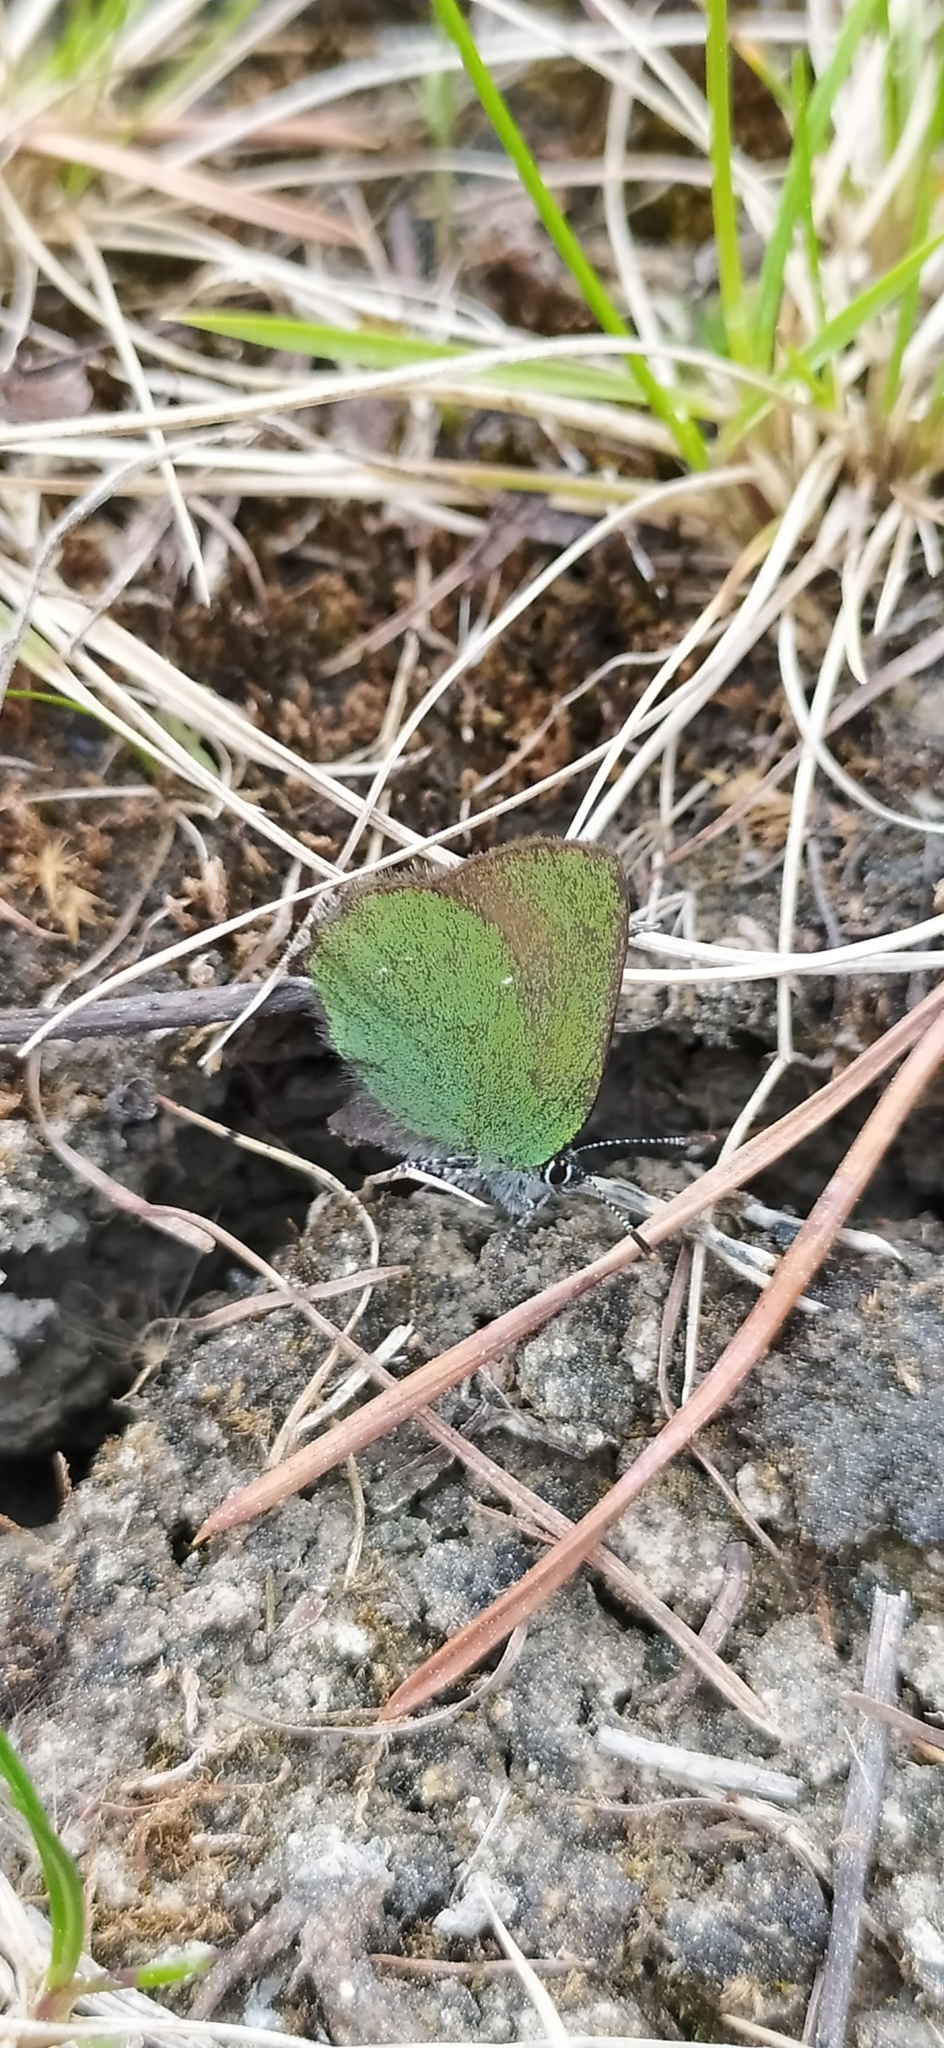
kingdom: Animalia
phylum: Arthropoda
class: Insecta
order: Lepidoptera
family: Lycaenidae
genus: Callophrys
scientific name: Callophrys rubi
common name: Green hairstreak
